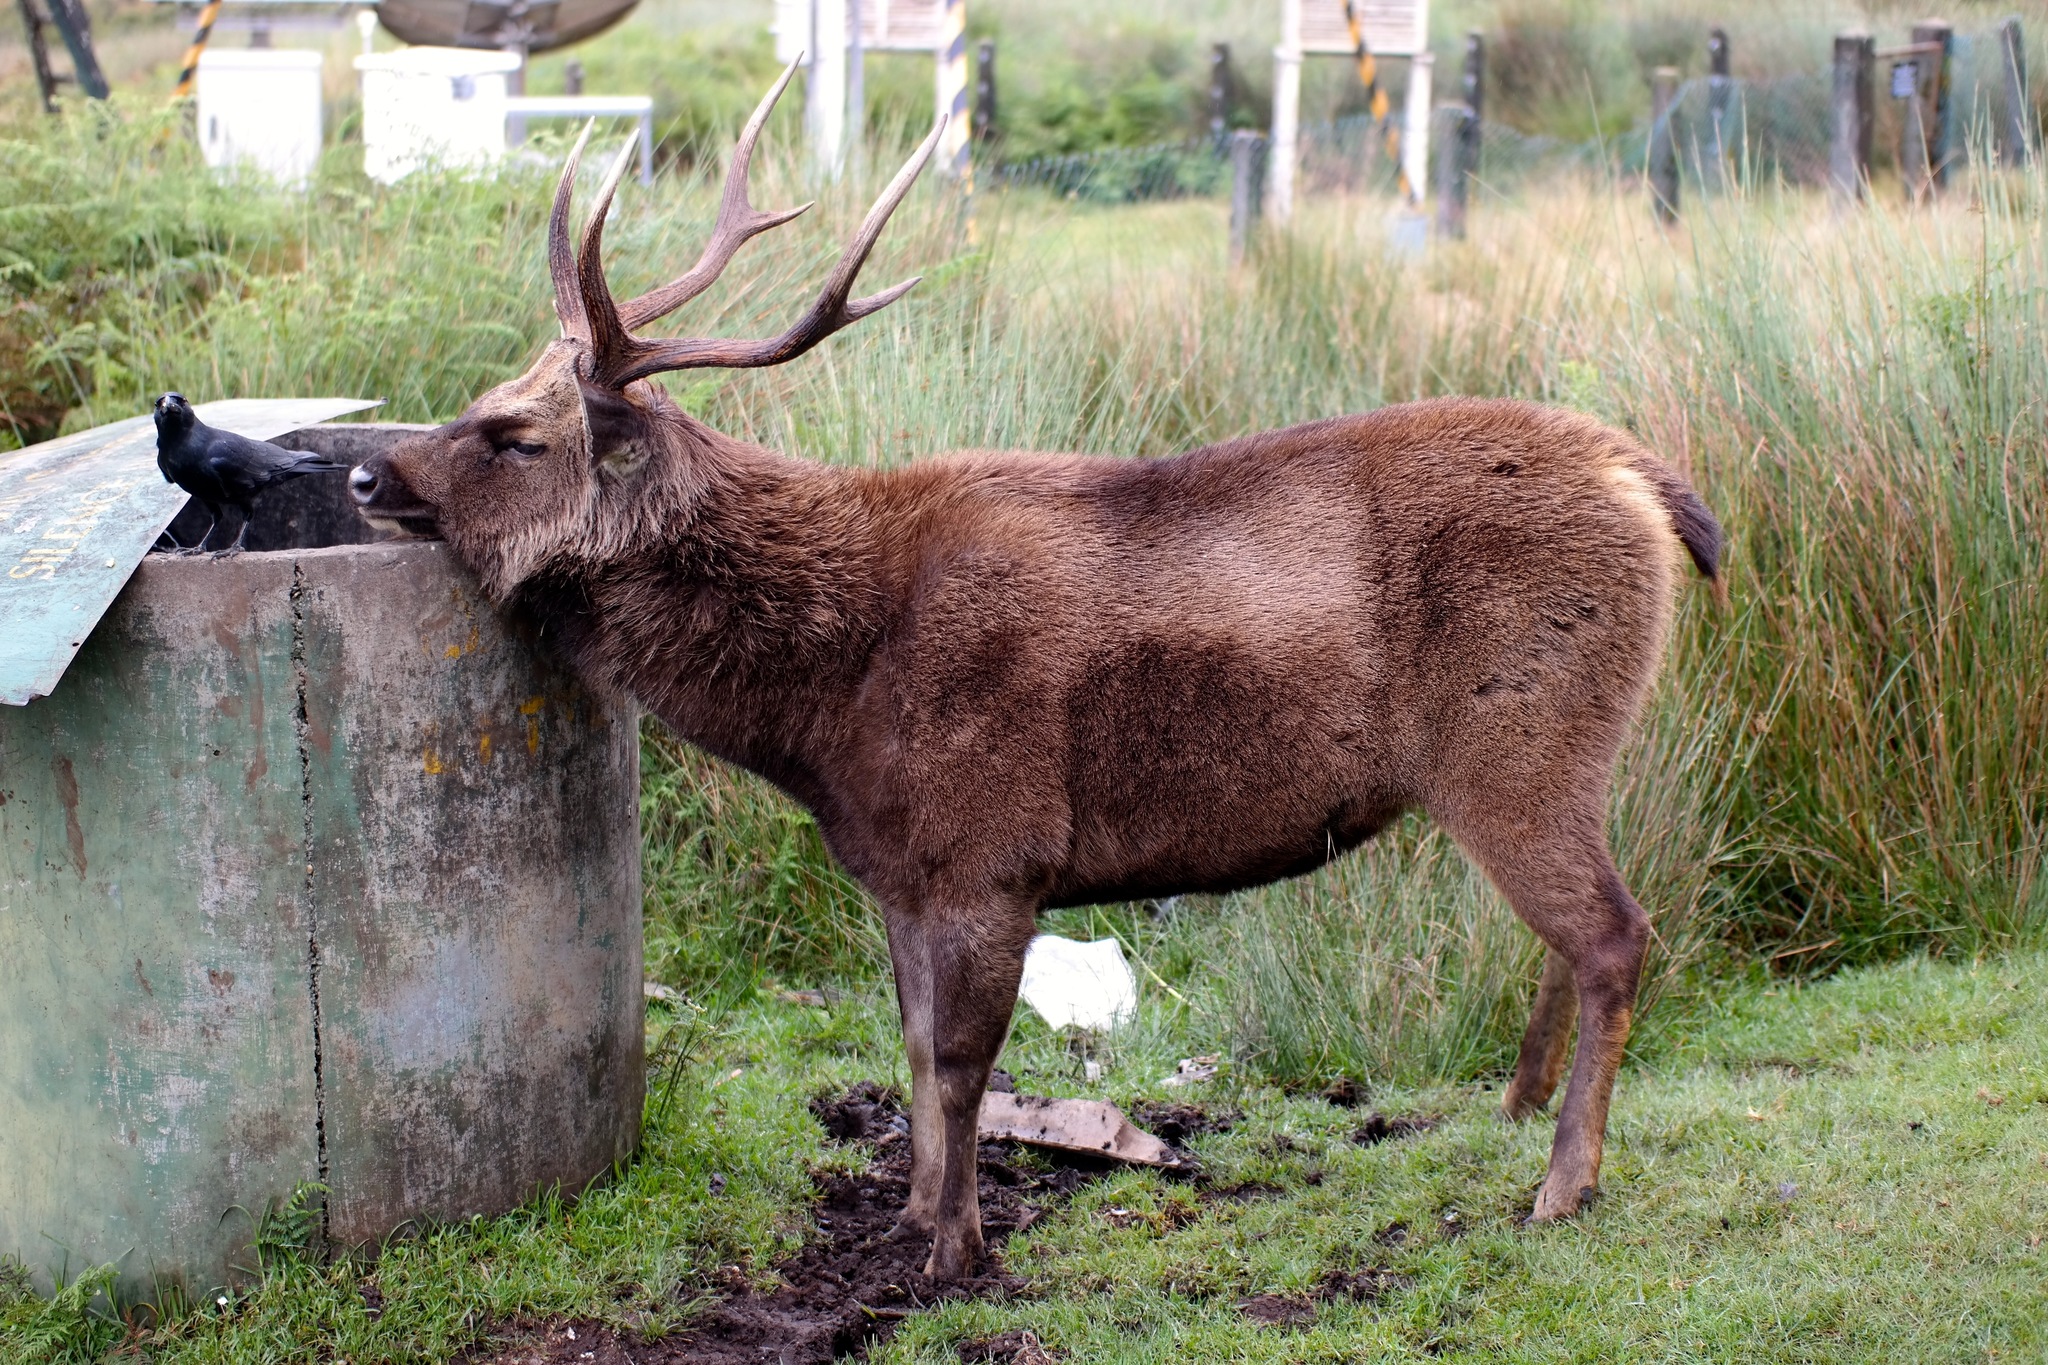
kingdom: Animalia
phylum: Chordata
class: Mammalia
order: Artiodactyla
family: Cervidae
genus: Rusa
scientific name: Rusa unicolor
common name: Sambar
